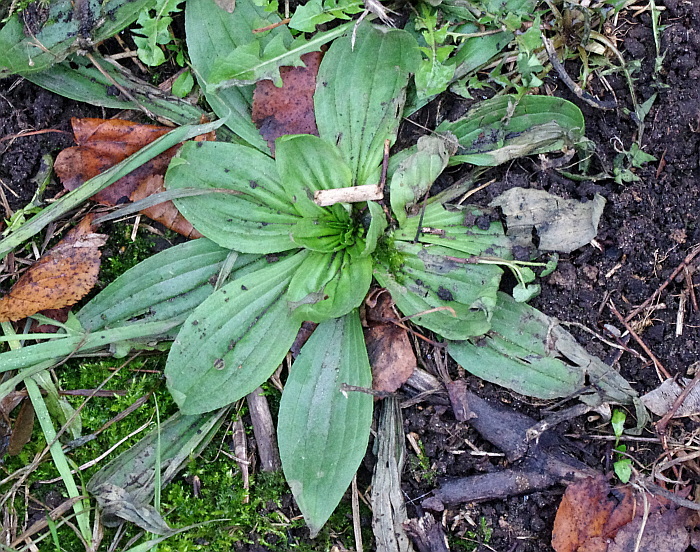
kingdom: Plantae
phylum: Tracheophyta
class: Magnoliopsida
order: Lamiales
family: Plantaginaceae
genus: Plantago
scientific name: Plantago media
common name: Hoary plantain
